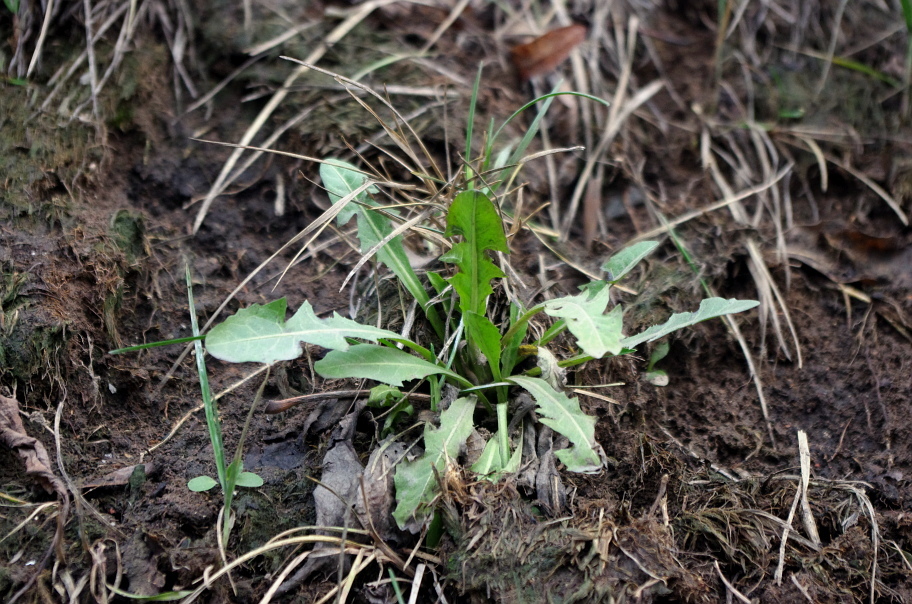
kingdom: Plantae
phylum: Tracheophyta
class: Magnoliopsida
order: Asterales
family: Asteraceae
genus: Taraxacum
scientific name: Taraxacum officinale
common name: Common dandelion
